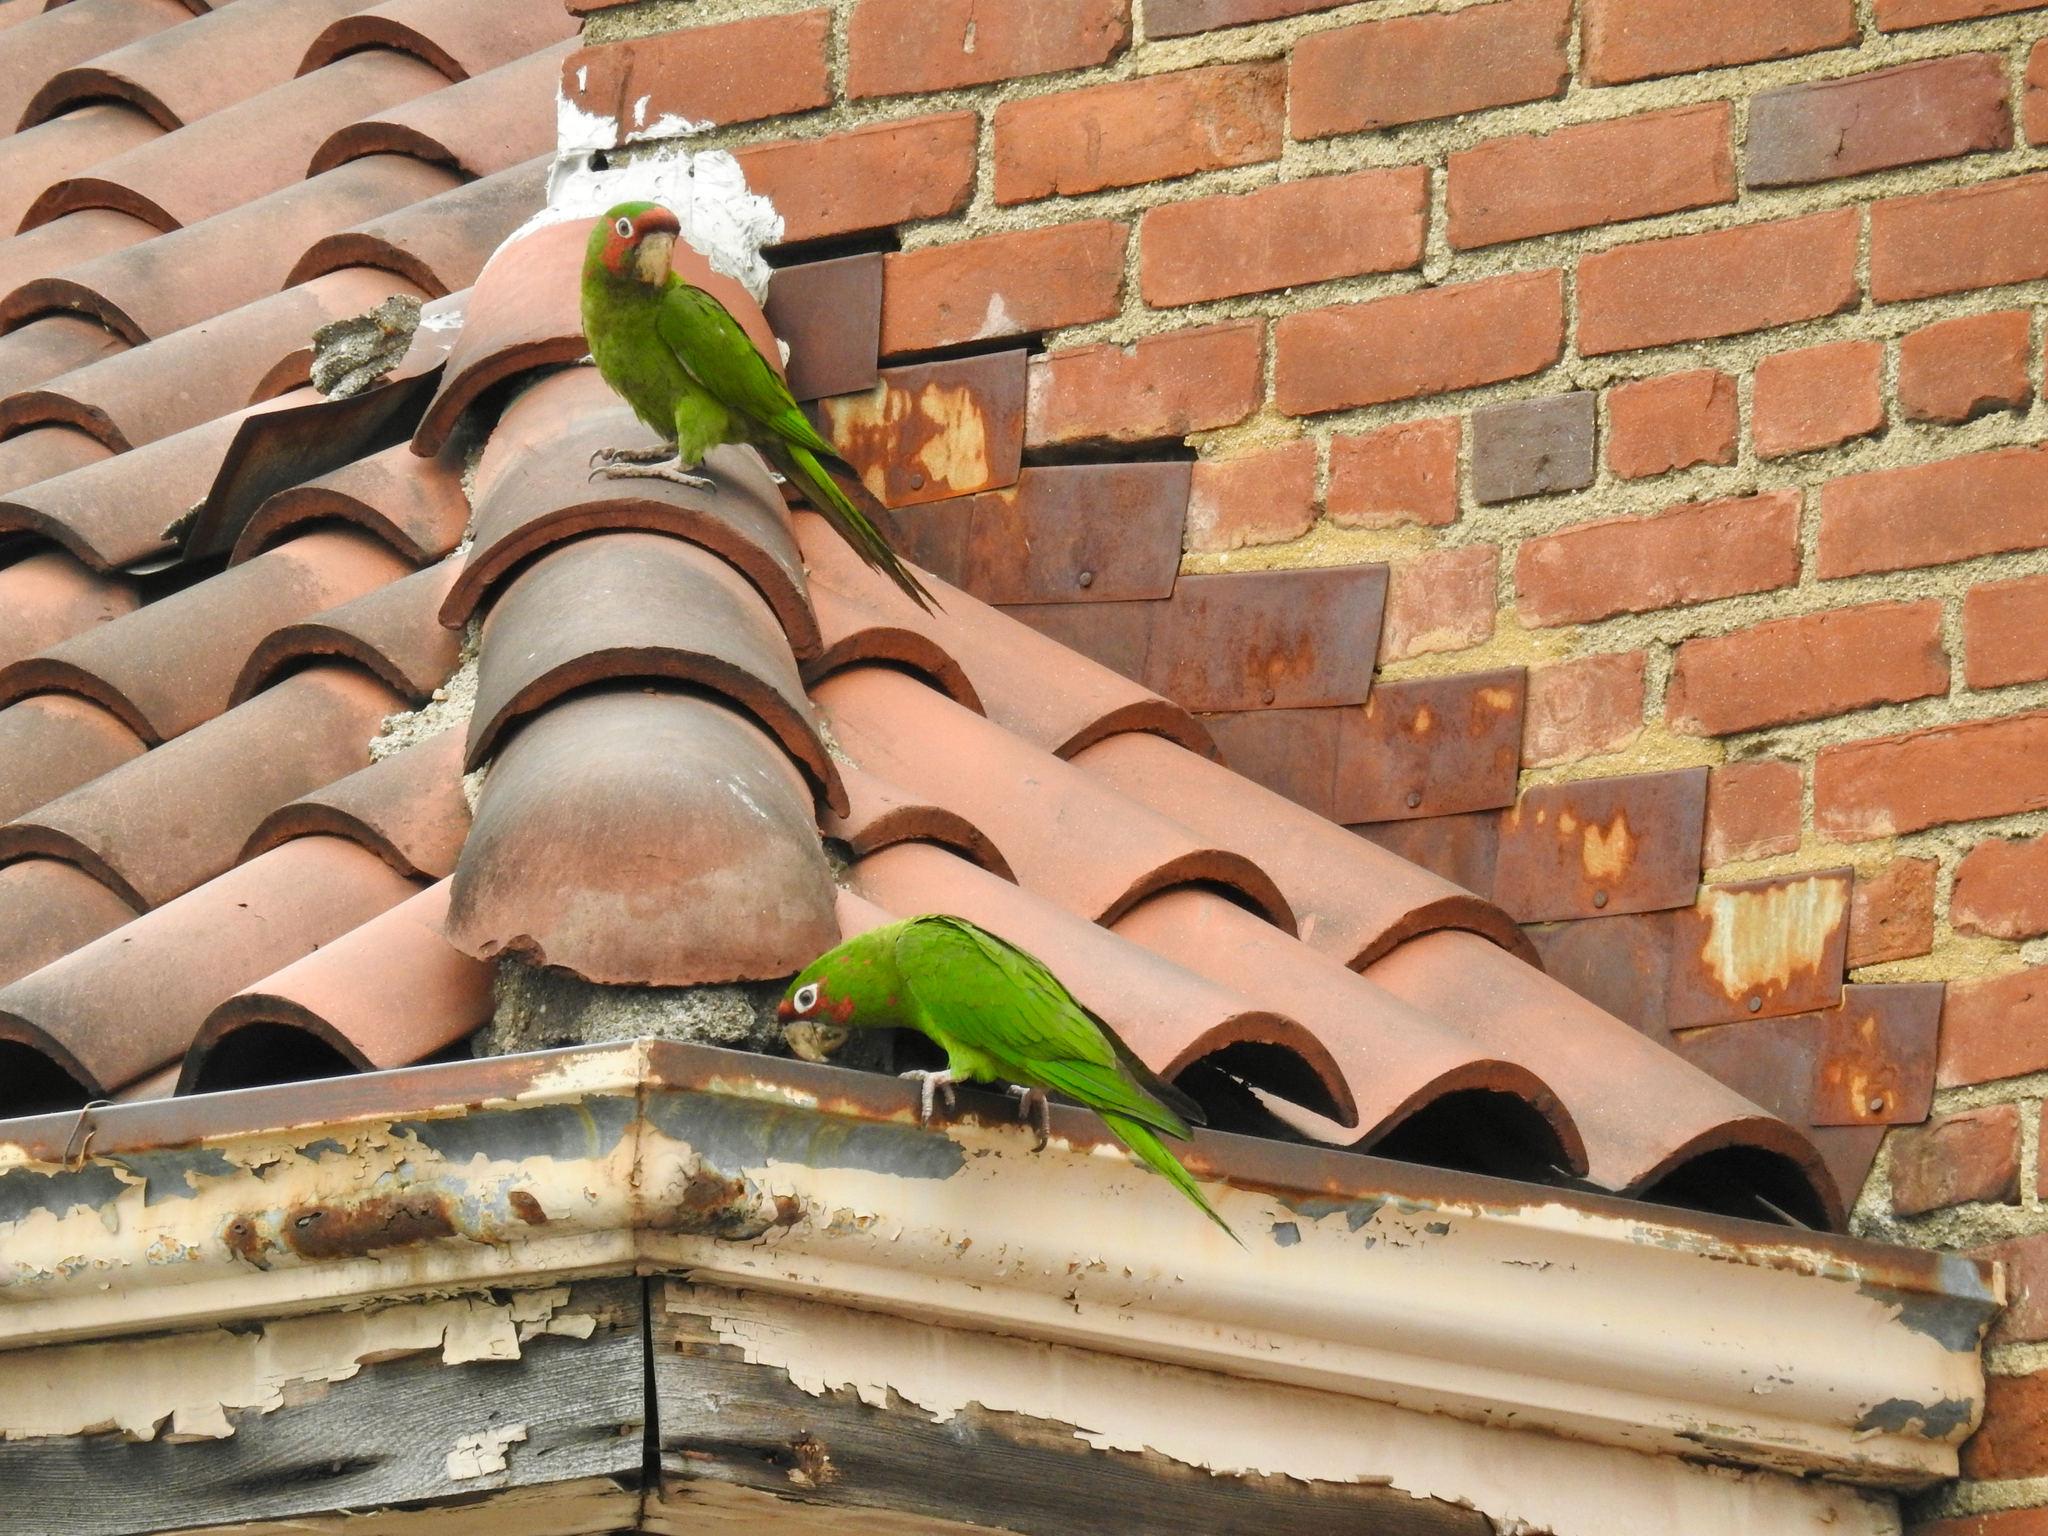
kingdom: Animalia
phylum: Chordata
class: Aves
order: Psittaciformes
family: Psittacidae
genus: Aratinga
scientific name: Aratinga mitrata
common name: Mitred parakeet
